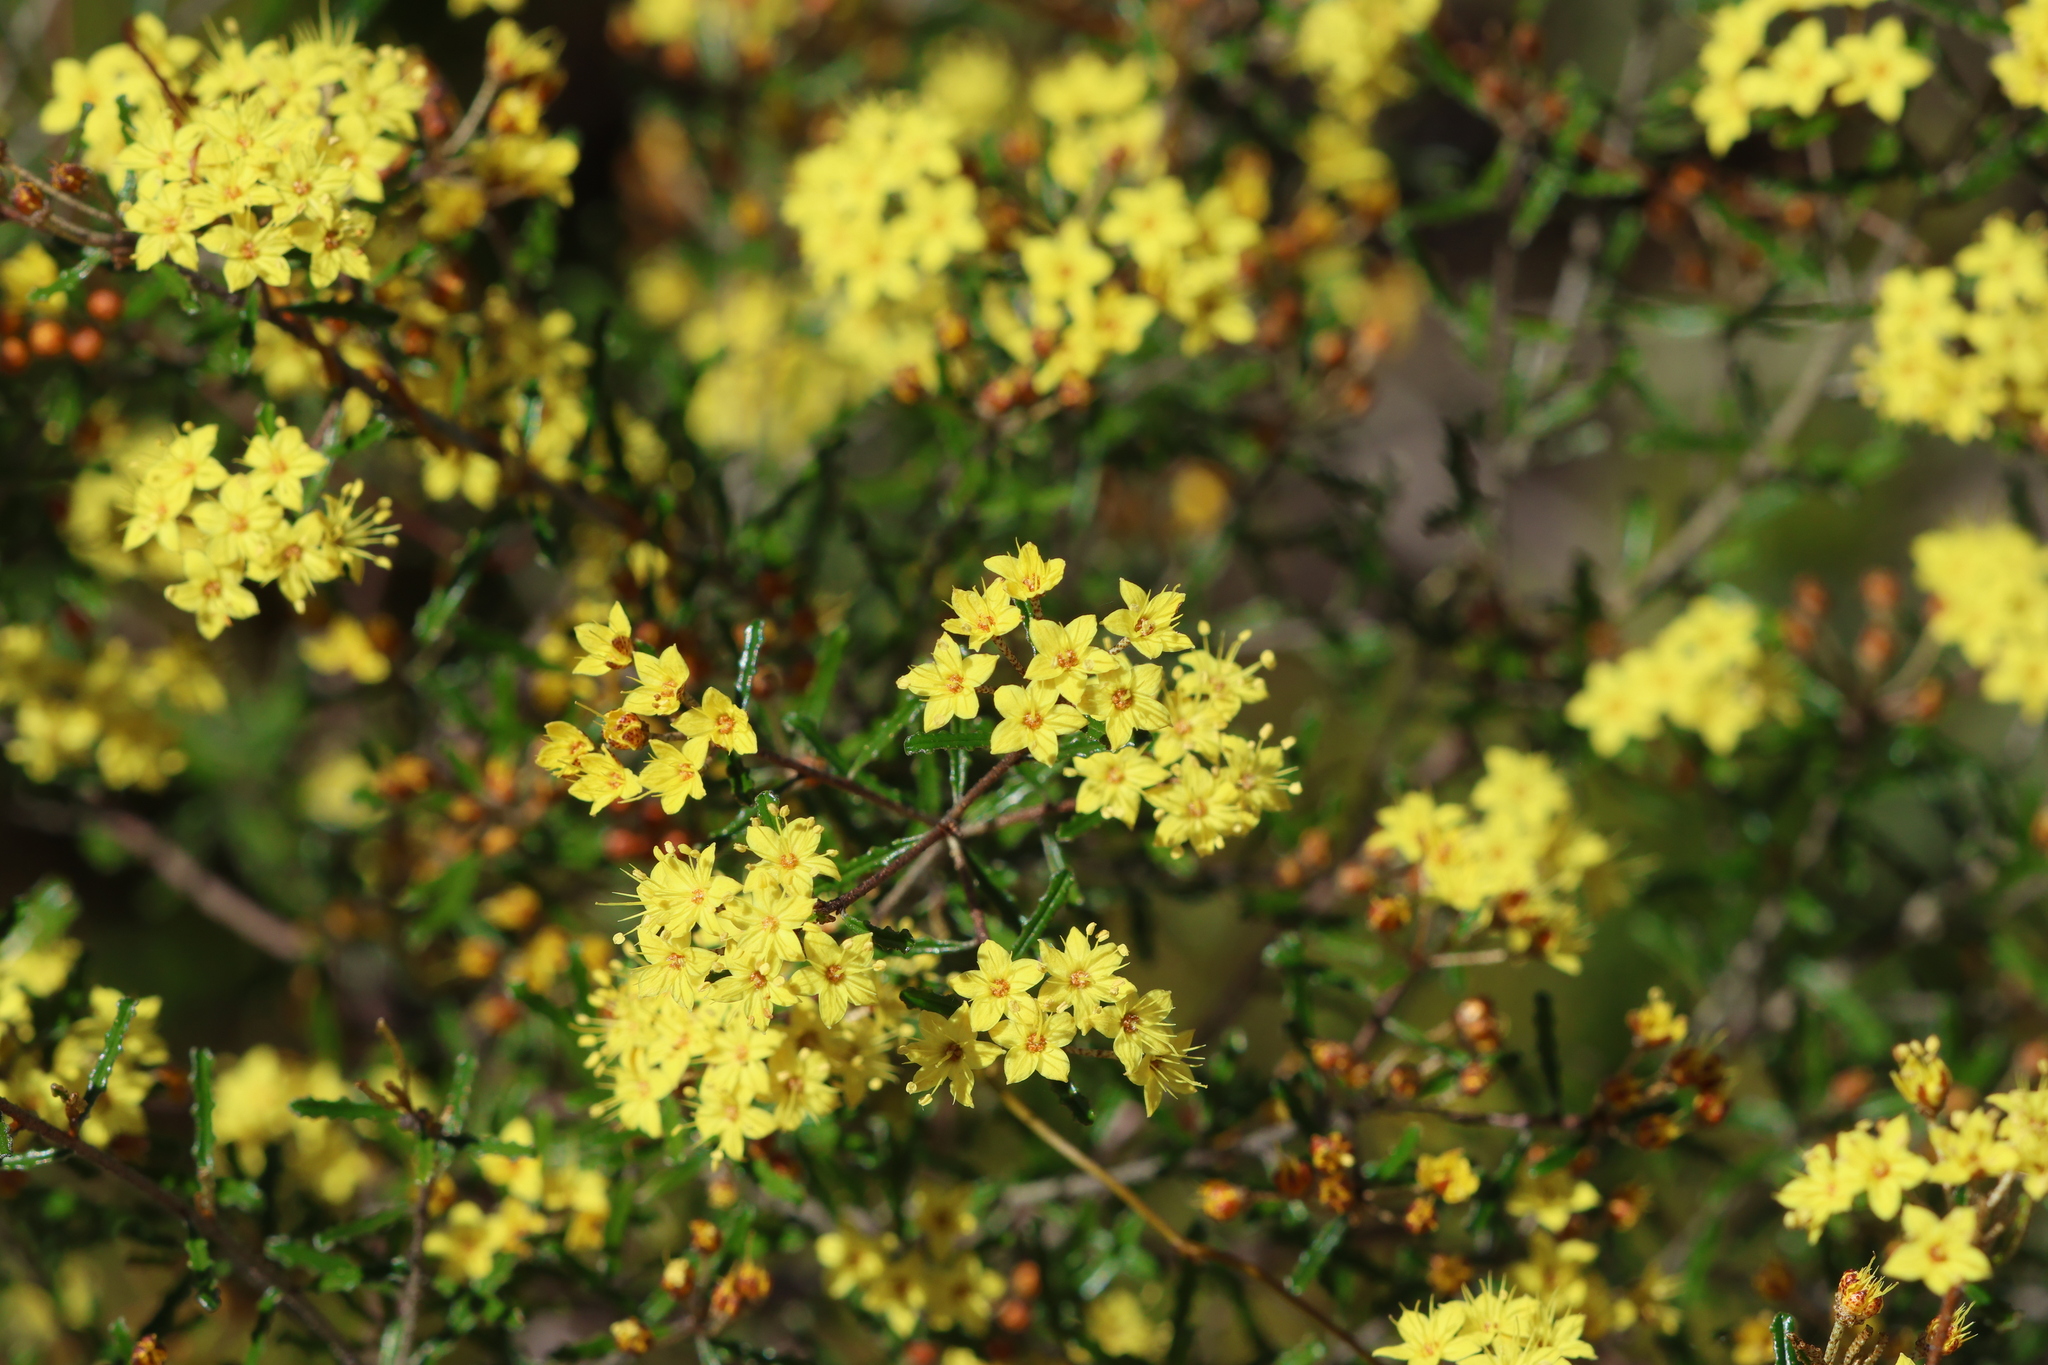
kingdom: Plantae
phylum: Tracheophyta
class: Magnoliopsida
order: Sapindales
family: Rutaceae
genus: Phebalium
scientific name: Phebalium bullatum
